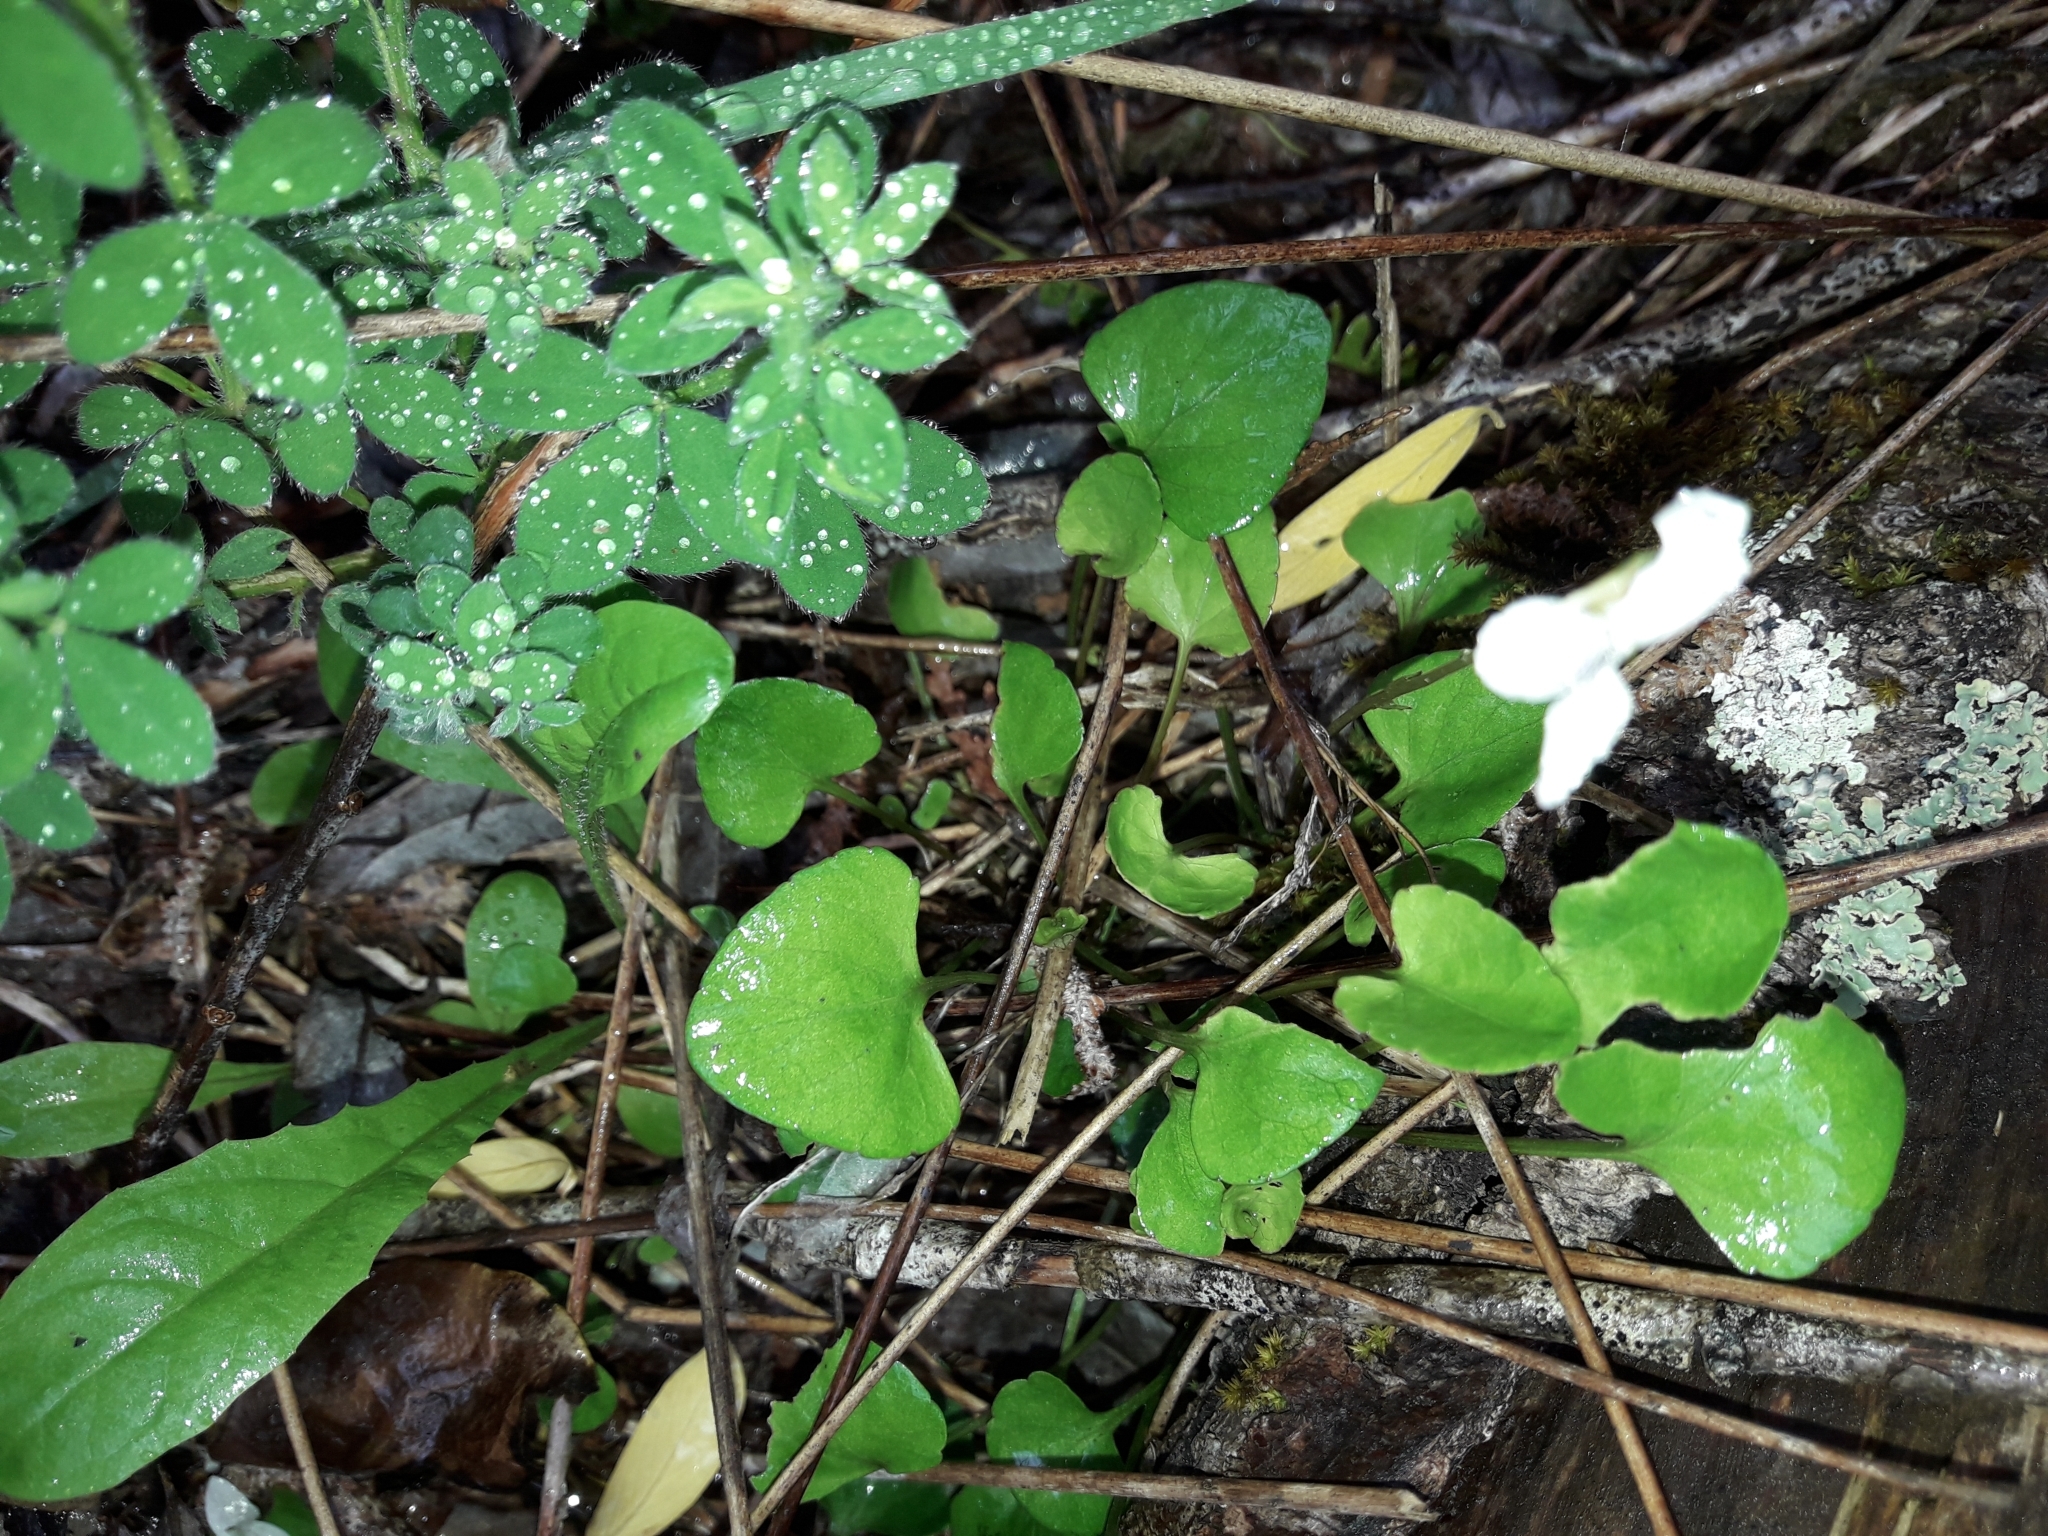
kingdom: Plantae
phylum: Tracheophyta
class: Magnoliopsida
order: Malpighiales
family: Violaceae
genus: Viola
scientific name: Viola cunninghamii
